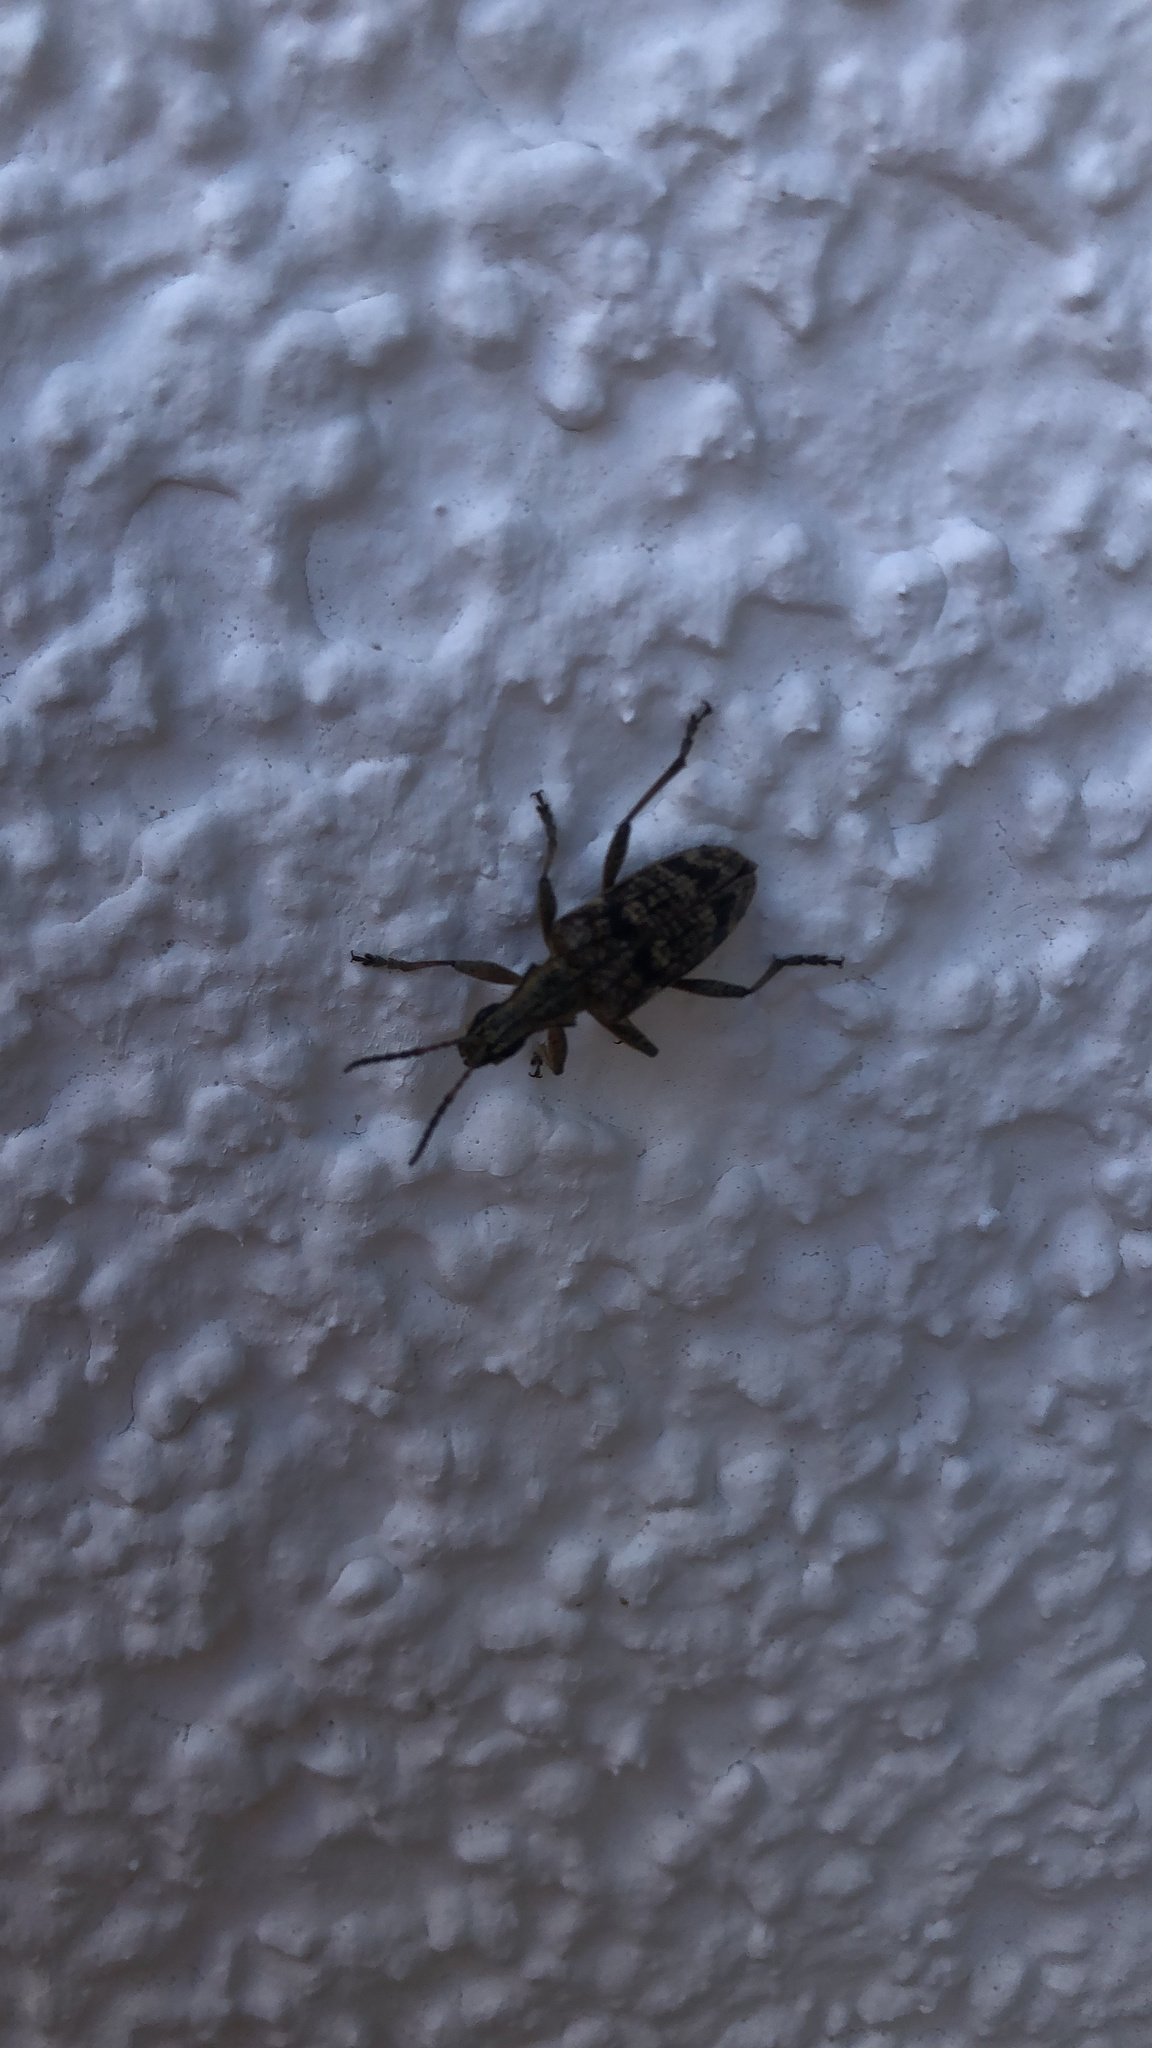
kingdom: Animalia
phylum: Arthropoda
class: Insecta
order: Coleoptera
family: Cerambycidae
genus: Rhagium
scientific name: Rhagium inquisitor
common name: Ribbed pine borer
